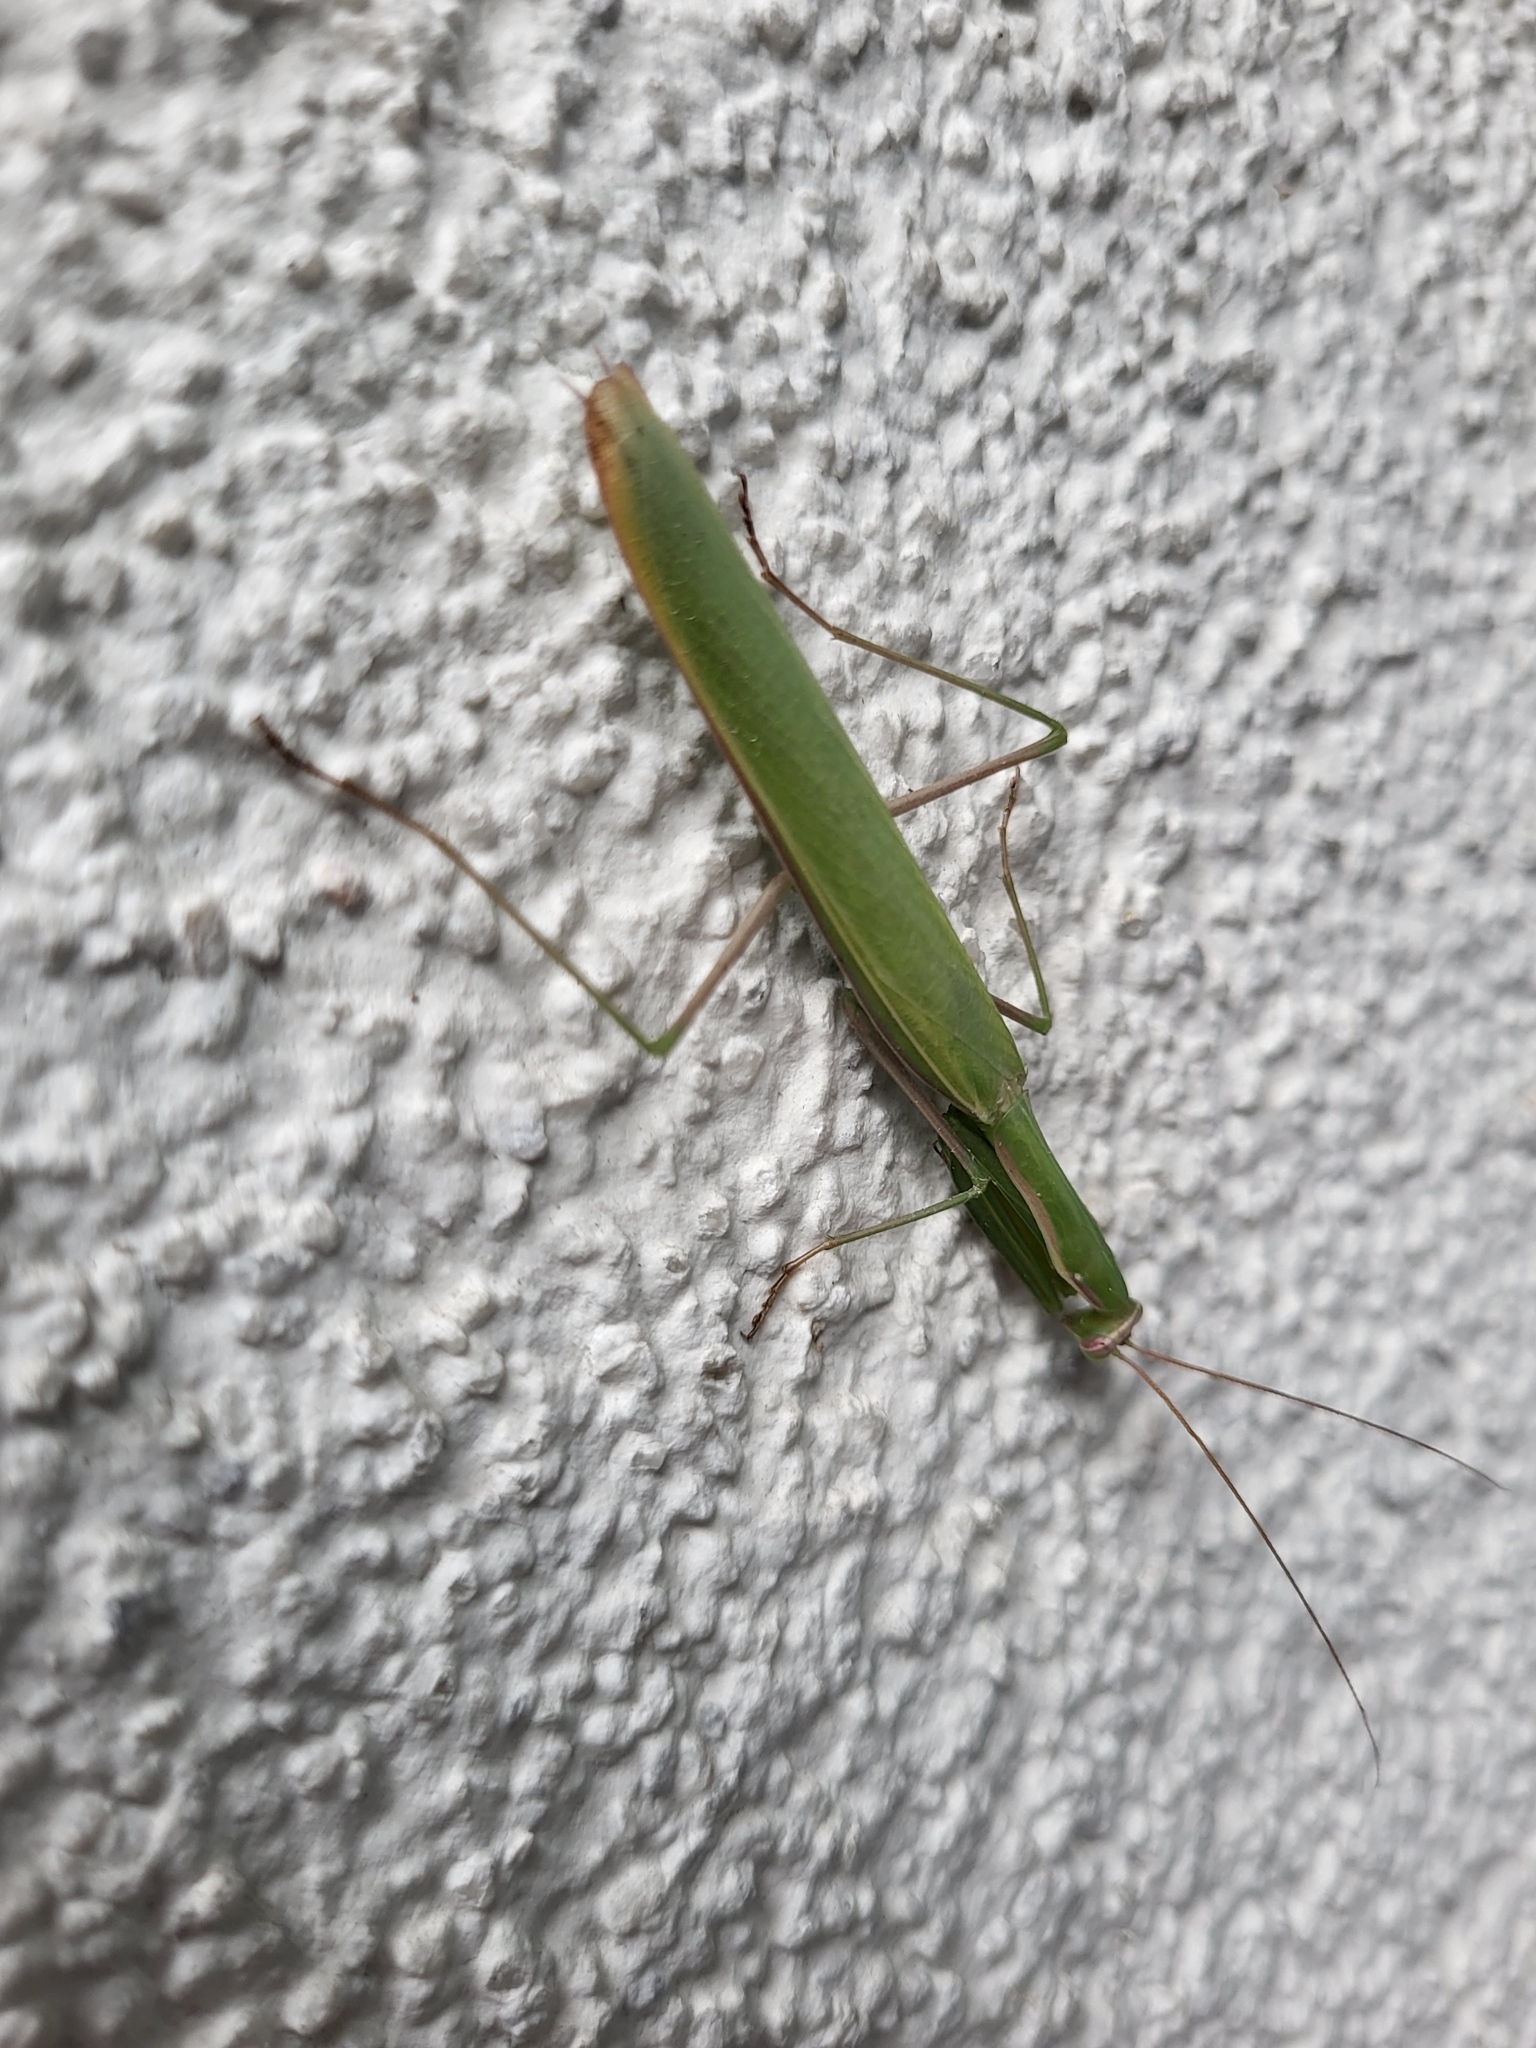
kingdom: Animalia
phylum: Arthropoda
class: Insecta
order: Mantodea
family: Mantidae
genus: Mantis
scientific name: Mantis religiosa
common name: Praying mantis
